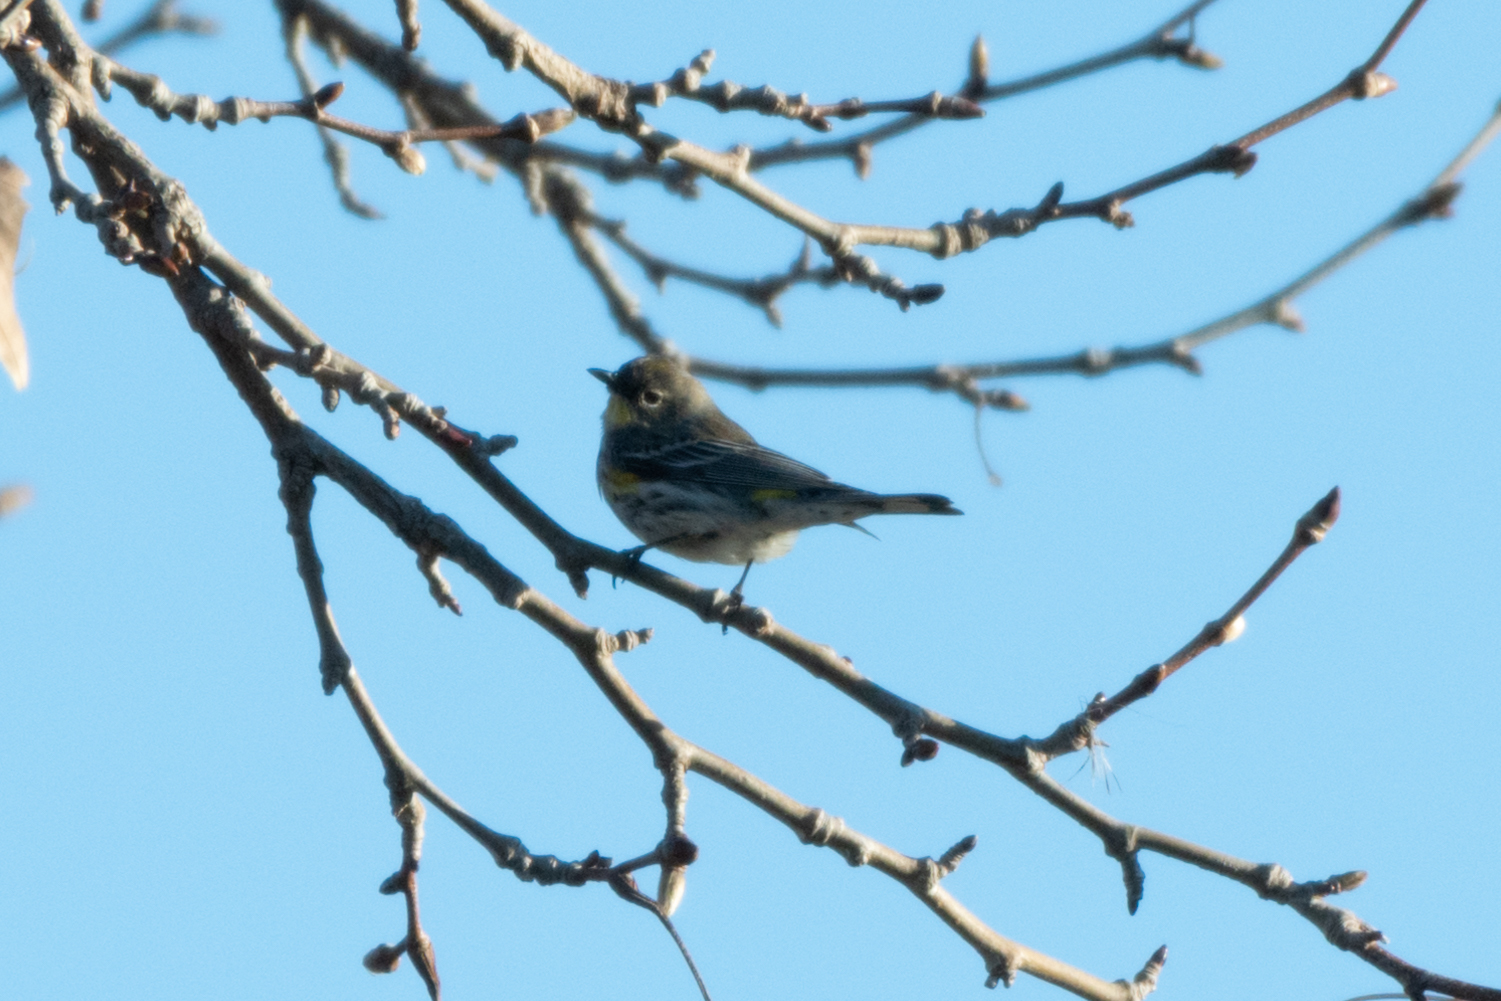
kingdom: Animalia
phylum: Chordata
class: Aves
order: Passeriformes
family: Parulidae
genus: Setophaga
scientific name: Setophaga coronata
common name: Myrtle warbler
